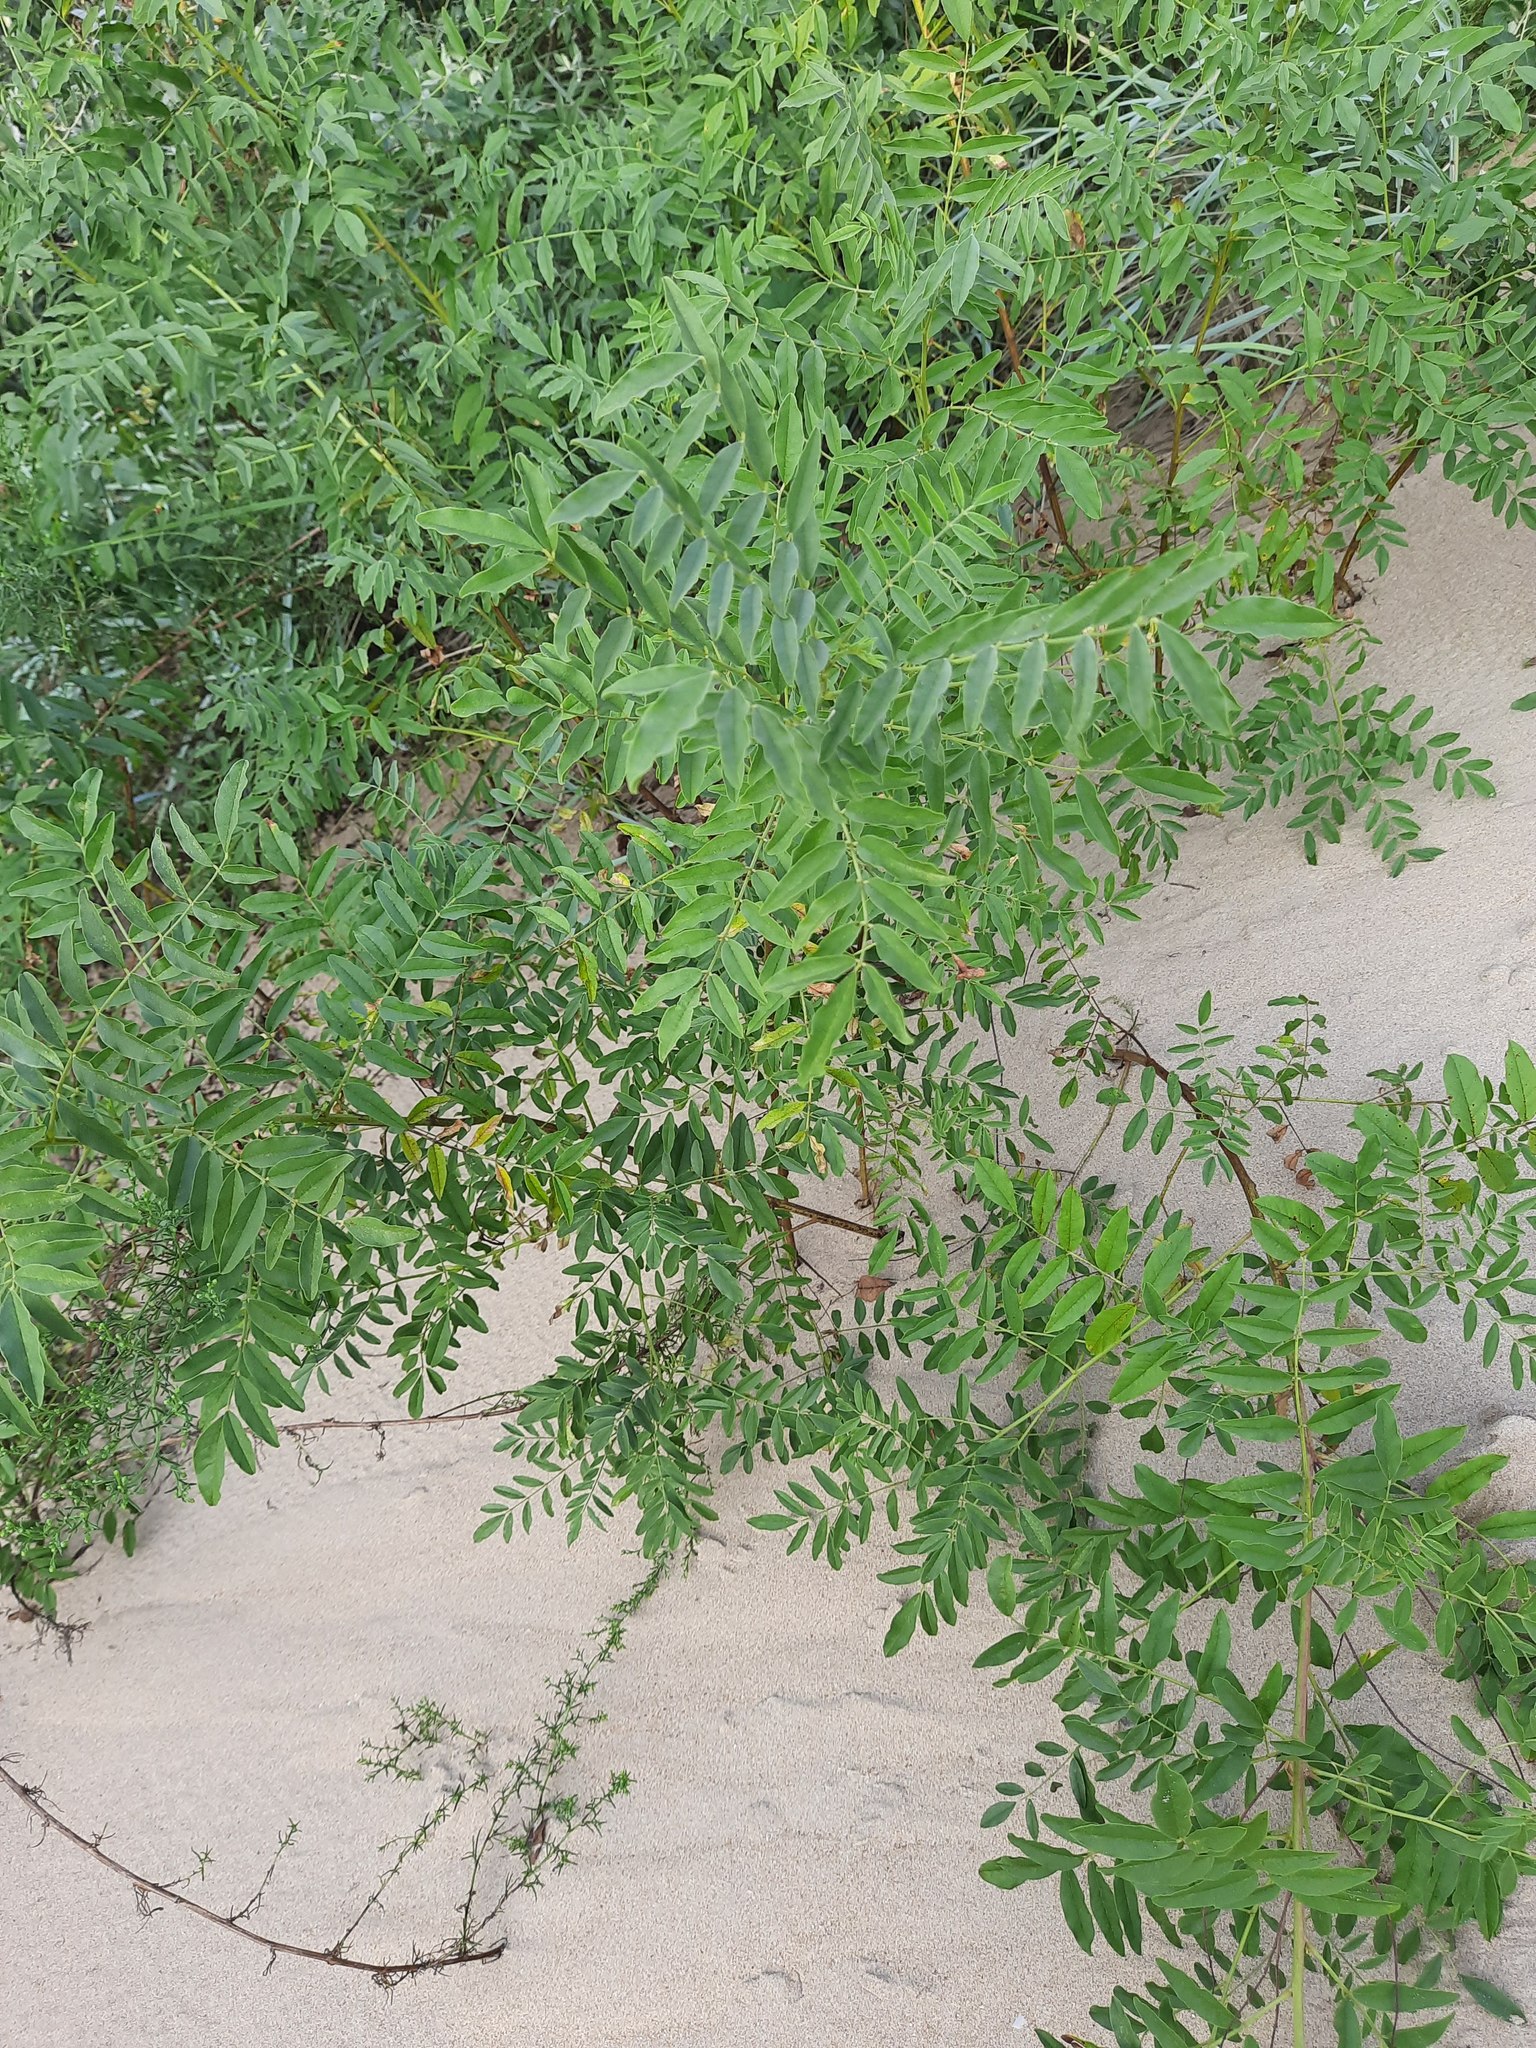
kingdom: Plantae
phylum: Tracheophyta
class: Magnoliopsida
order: Fabales
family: Fabaceae
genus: Glycyrrhiza
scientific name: Glycyrrhiza glabra
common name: Liquorice
